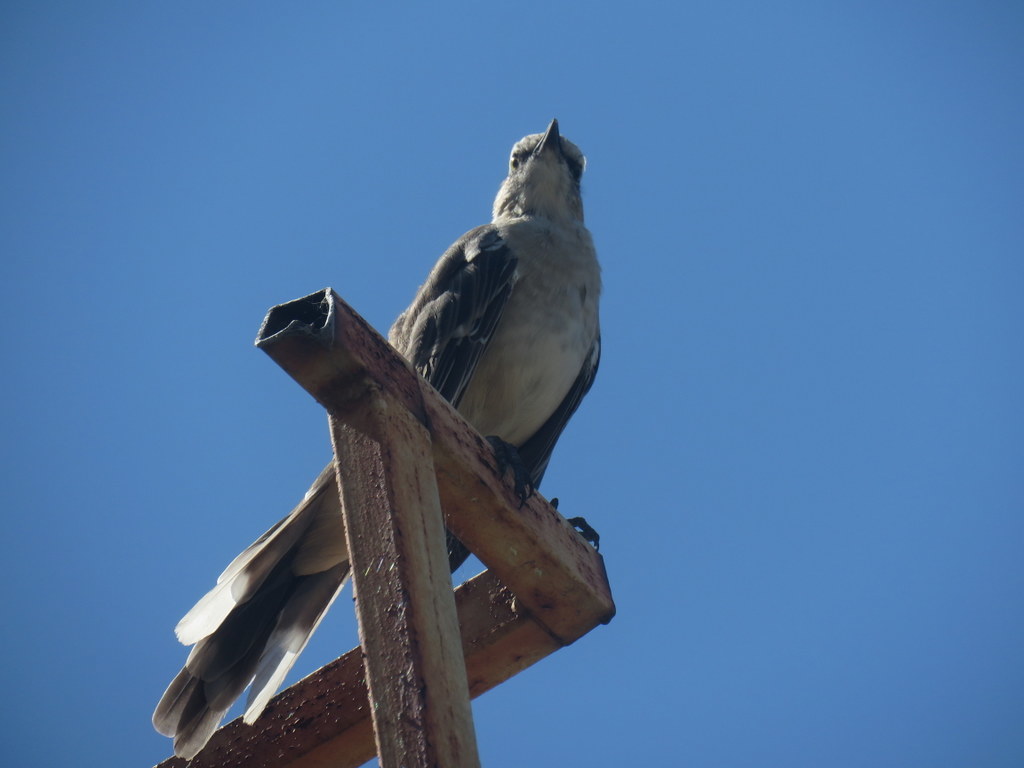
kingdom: Animalia
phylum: Chordata
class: Aves
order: Passeriformes
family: Mimidae
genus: Mimus
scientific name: Mimus saturninus
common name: Chalk-browed mockingbird
